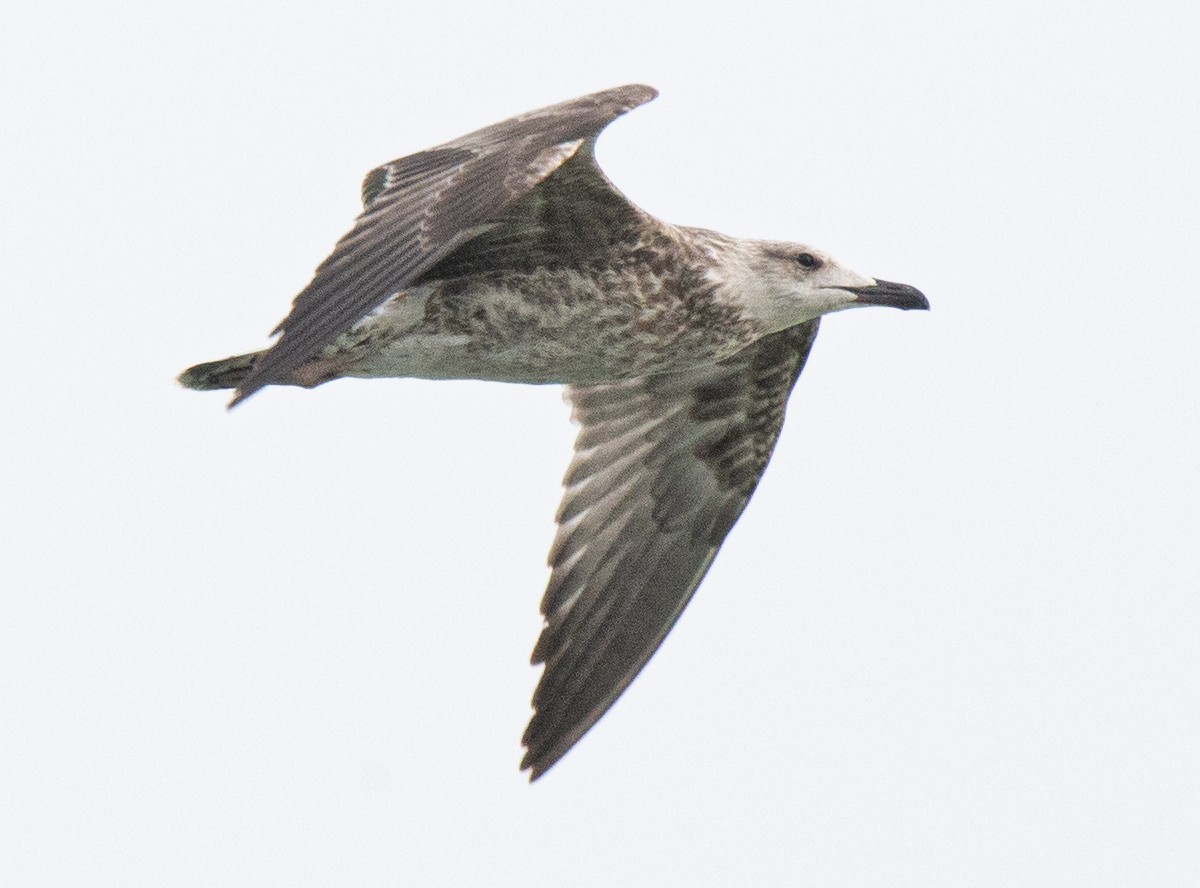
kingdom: Animalia
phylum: Chordata
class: Aves
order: Charadriiformes
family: Laridae
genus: Larus
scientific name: Larus michahellis
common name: Yellow-legged gull
